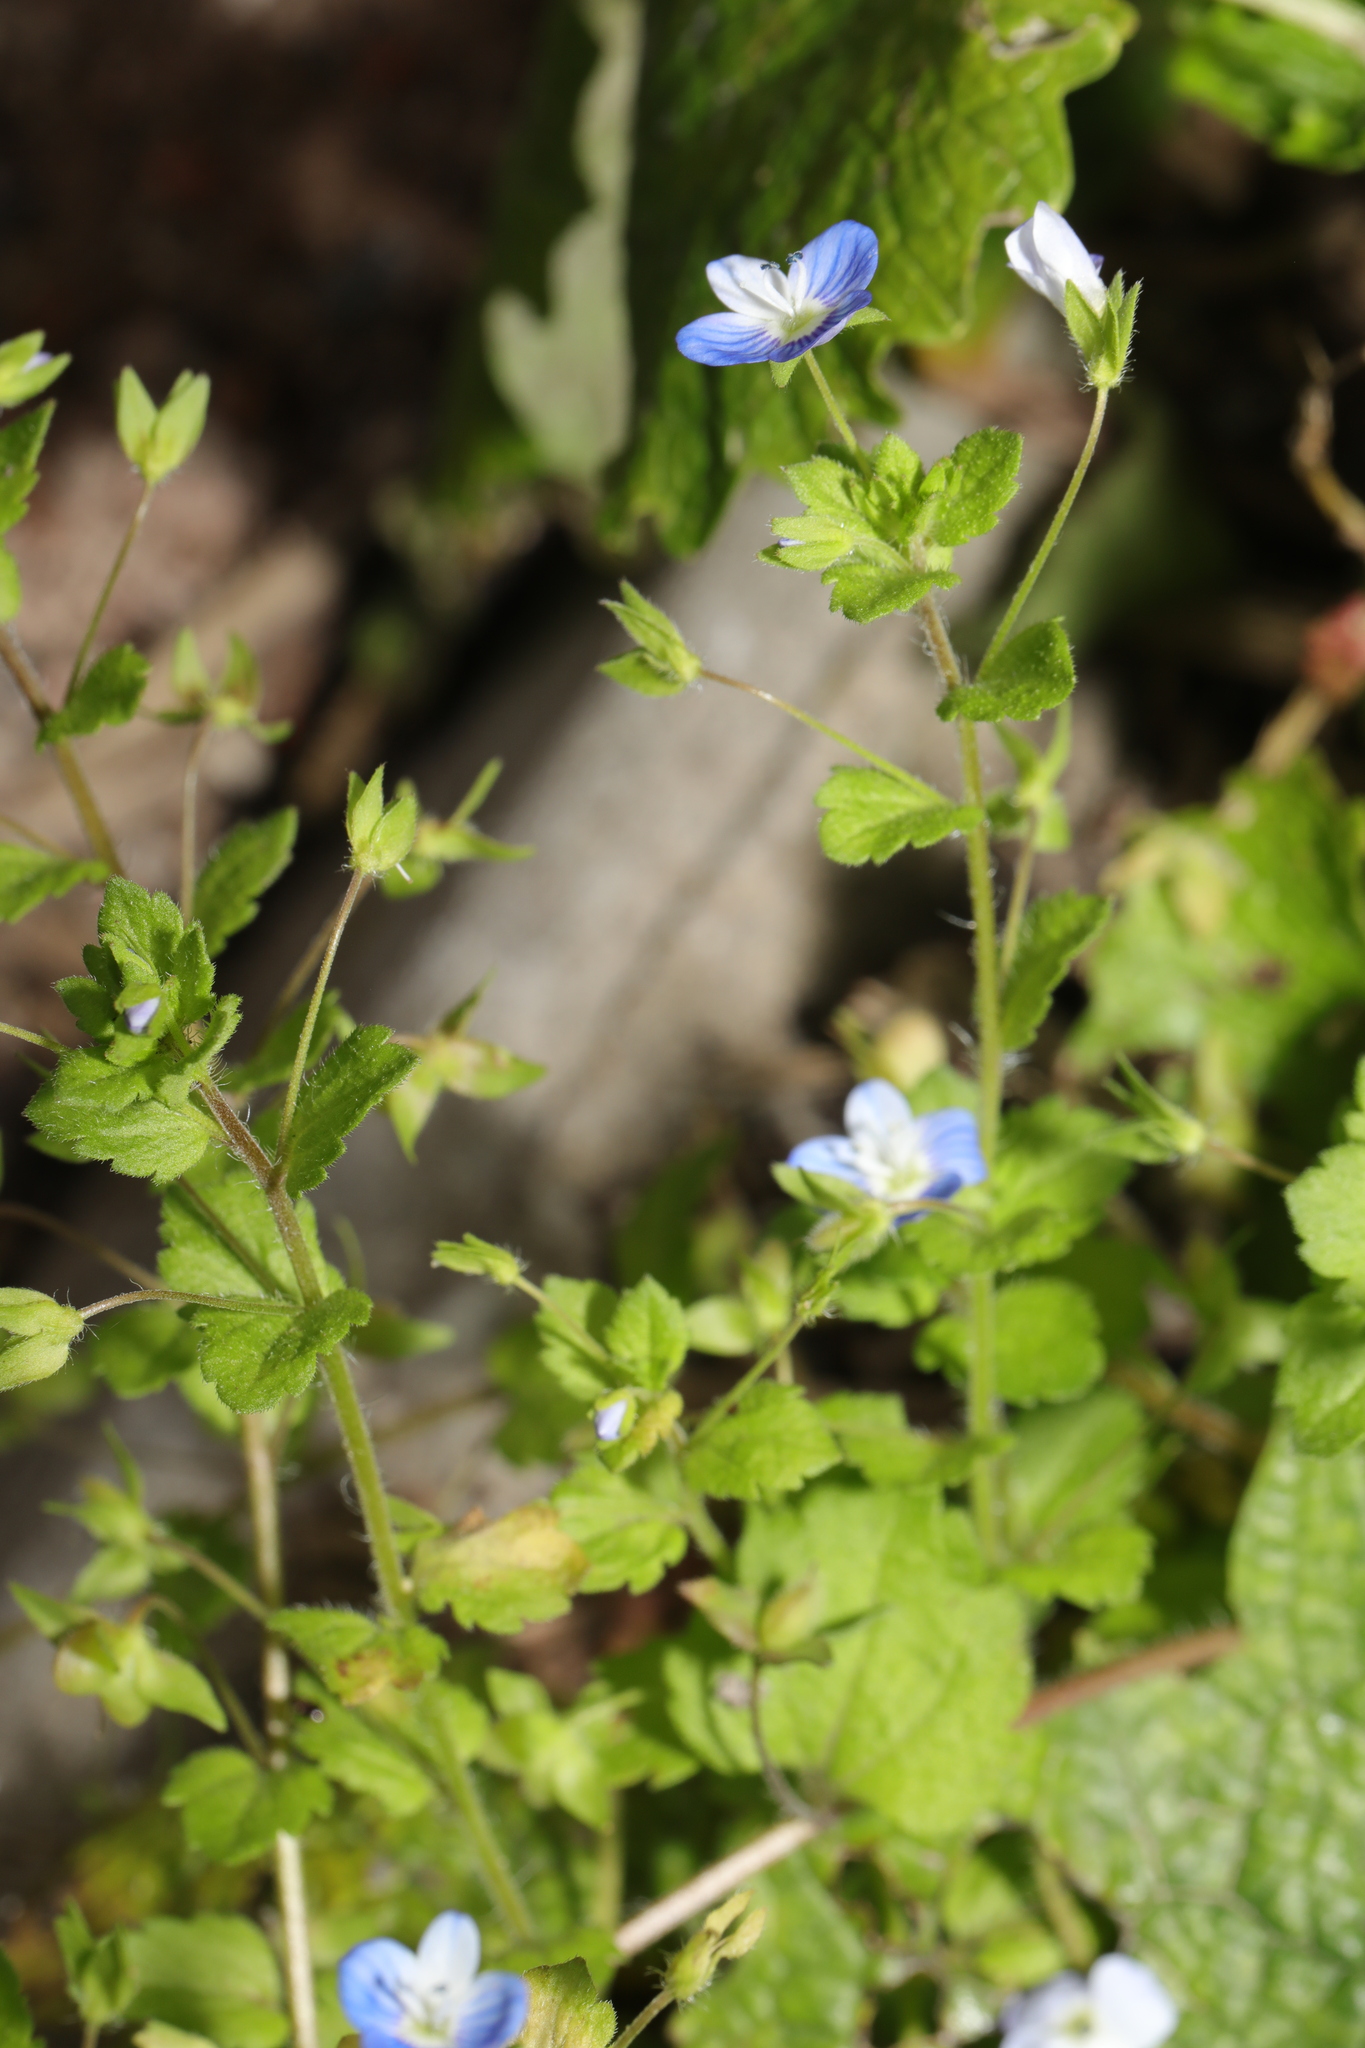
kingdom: Plantae
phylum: Tracheophyta
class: Magnoliopsida
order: Lamiales
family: Plantaginaceae
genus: Veronica
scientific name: Veronica persica
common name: Common field-speedwell
